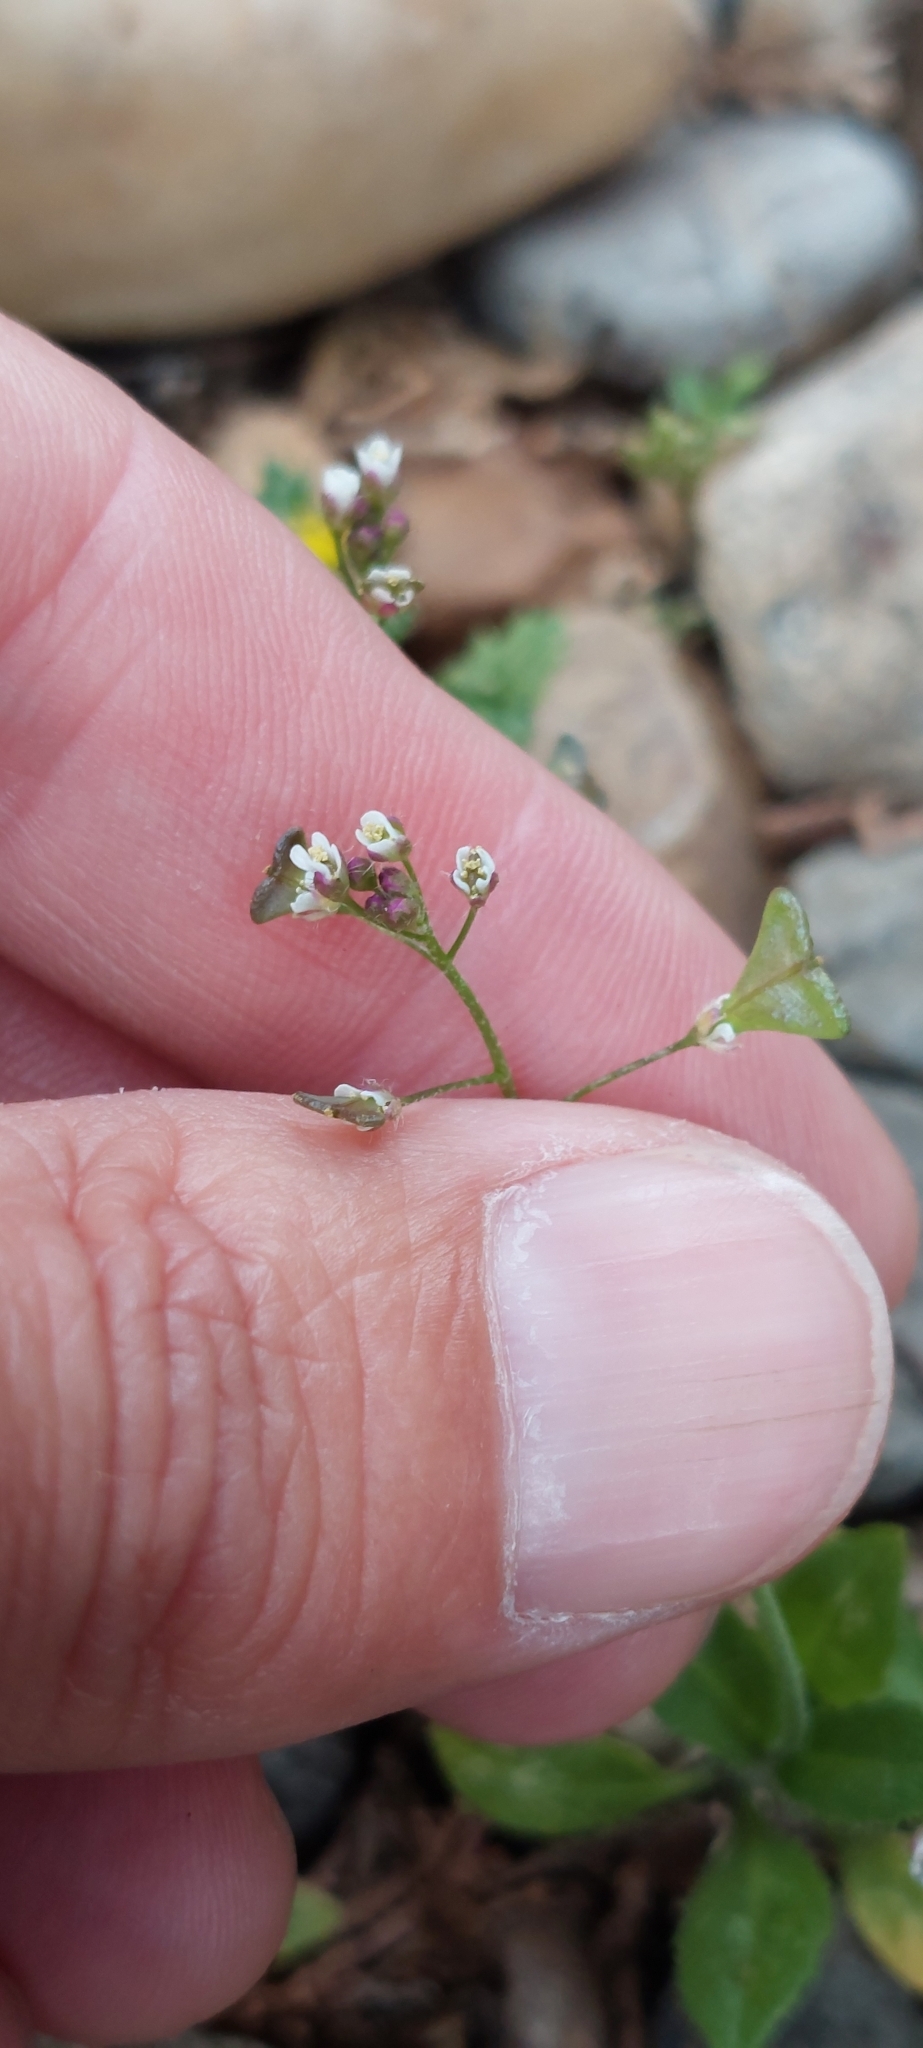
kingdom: Plantae
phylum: Tracheophyta
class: Magnoliopsida
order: Brassicales
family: Brassicaceae
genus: Capsella
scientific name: Capsella bursa-pastoris
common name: Shepherd's purse
